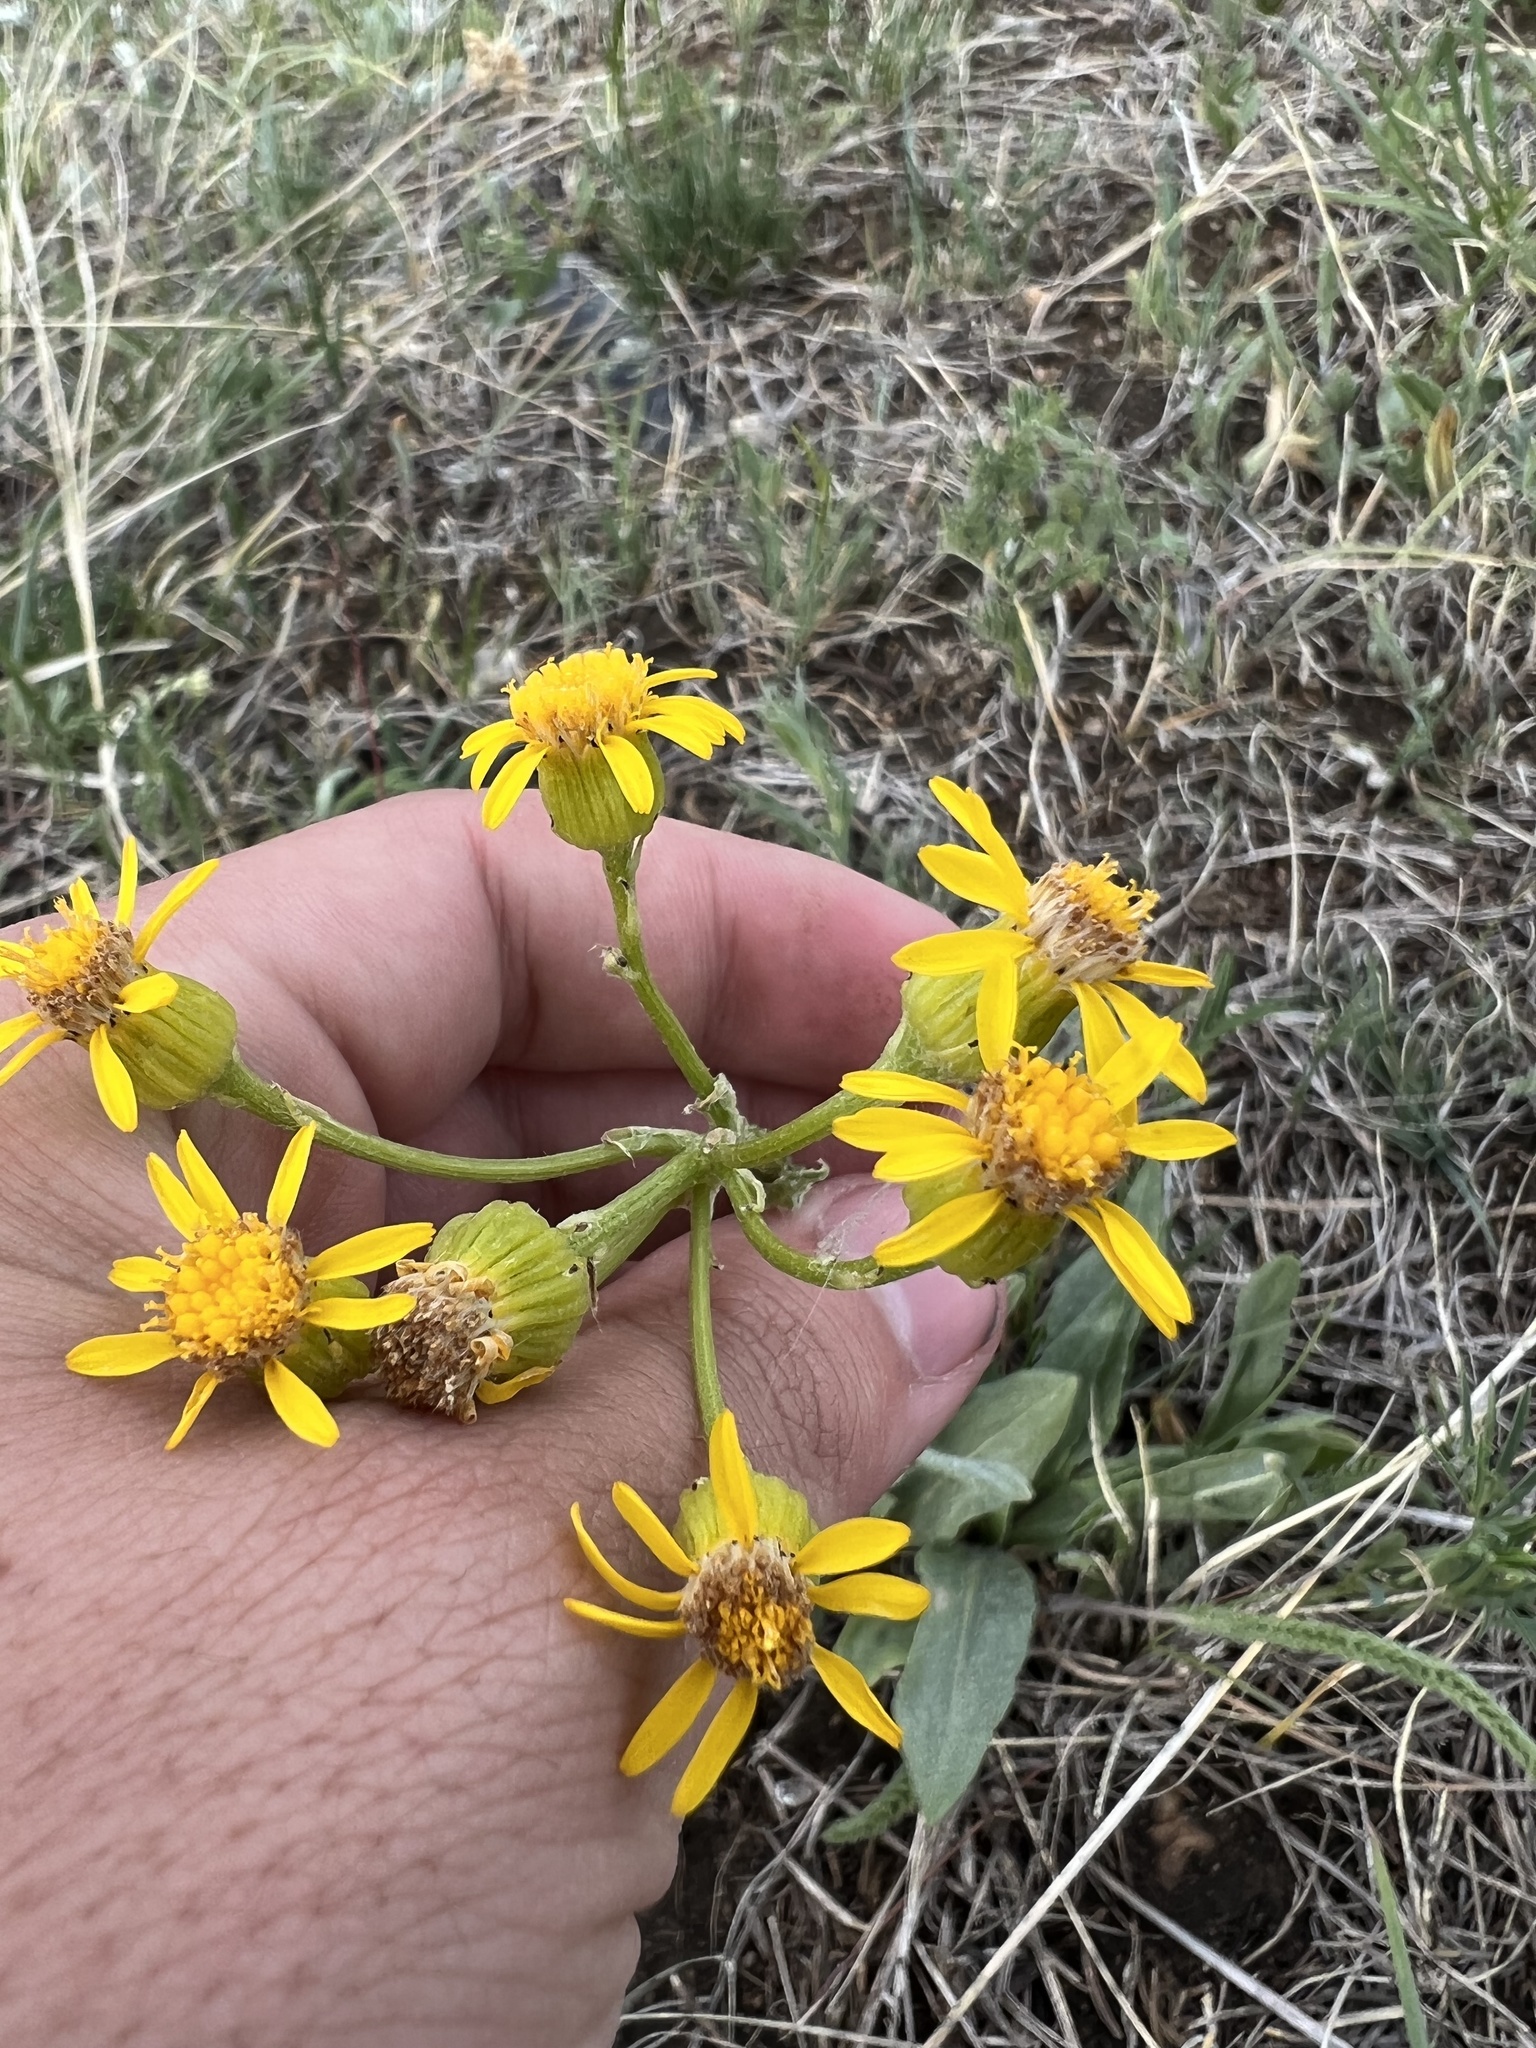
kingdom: Plantae
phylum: Tracheophyta
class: Magnoliopsida
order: Asterales
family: Asteraceae
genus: Senecio
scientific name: Senecio integerrimus
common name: Gaugeplant
